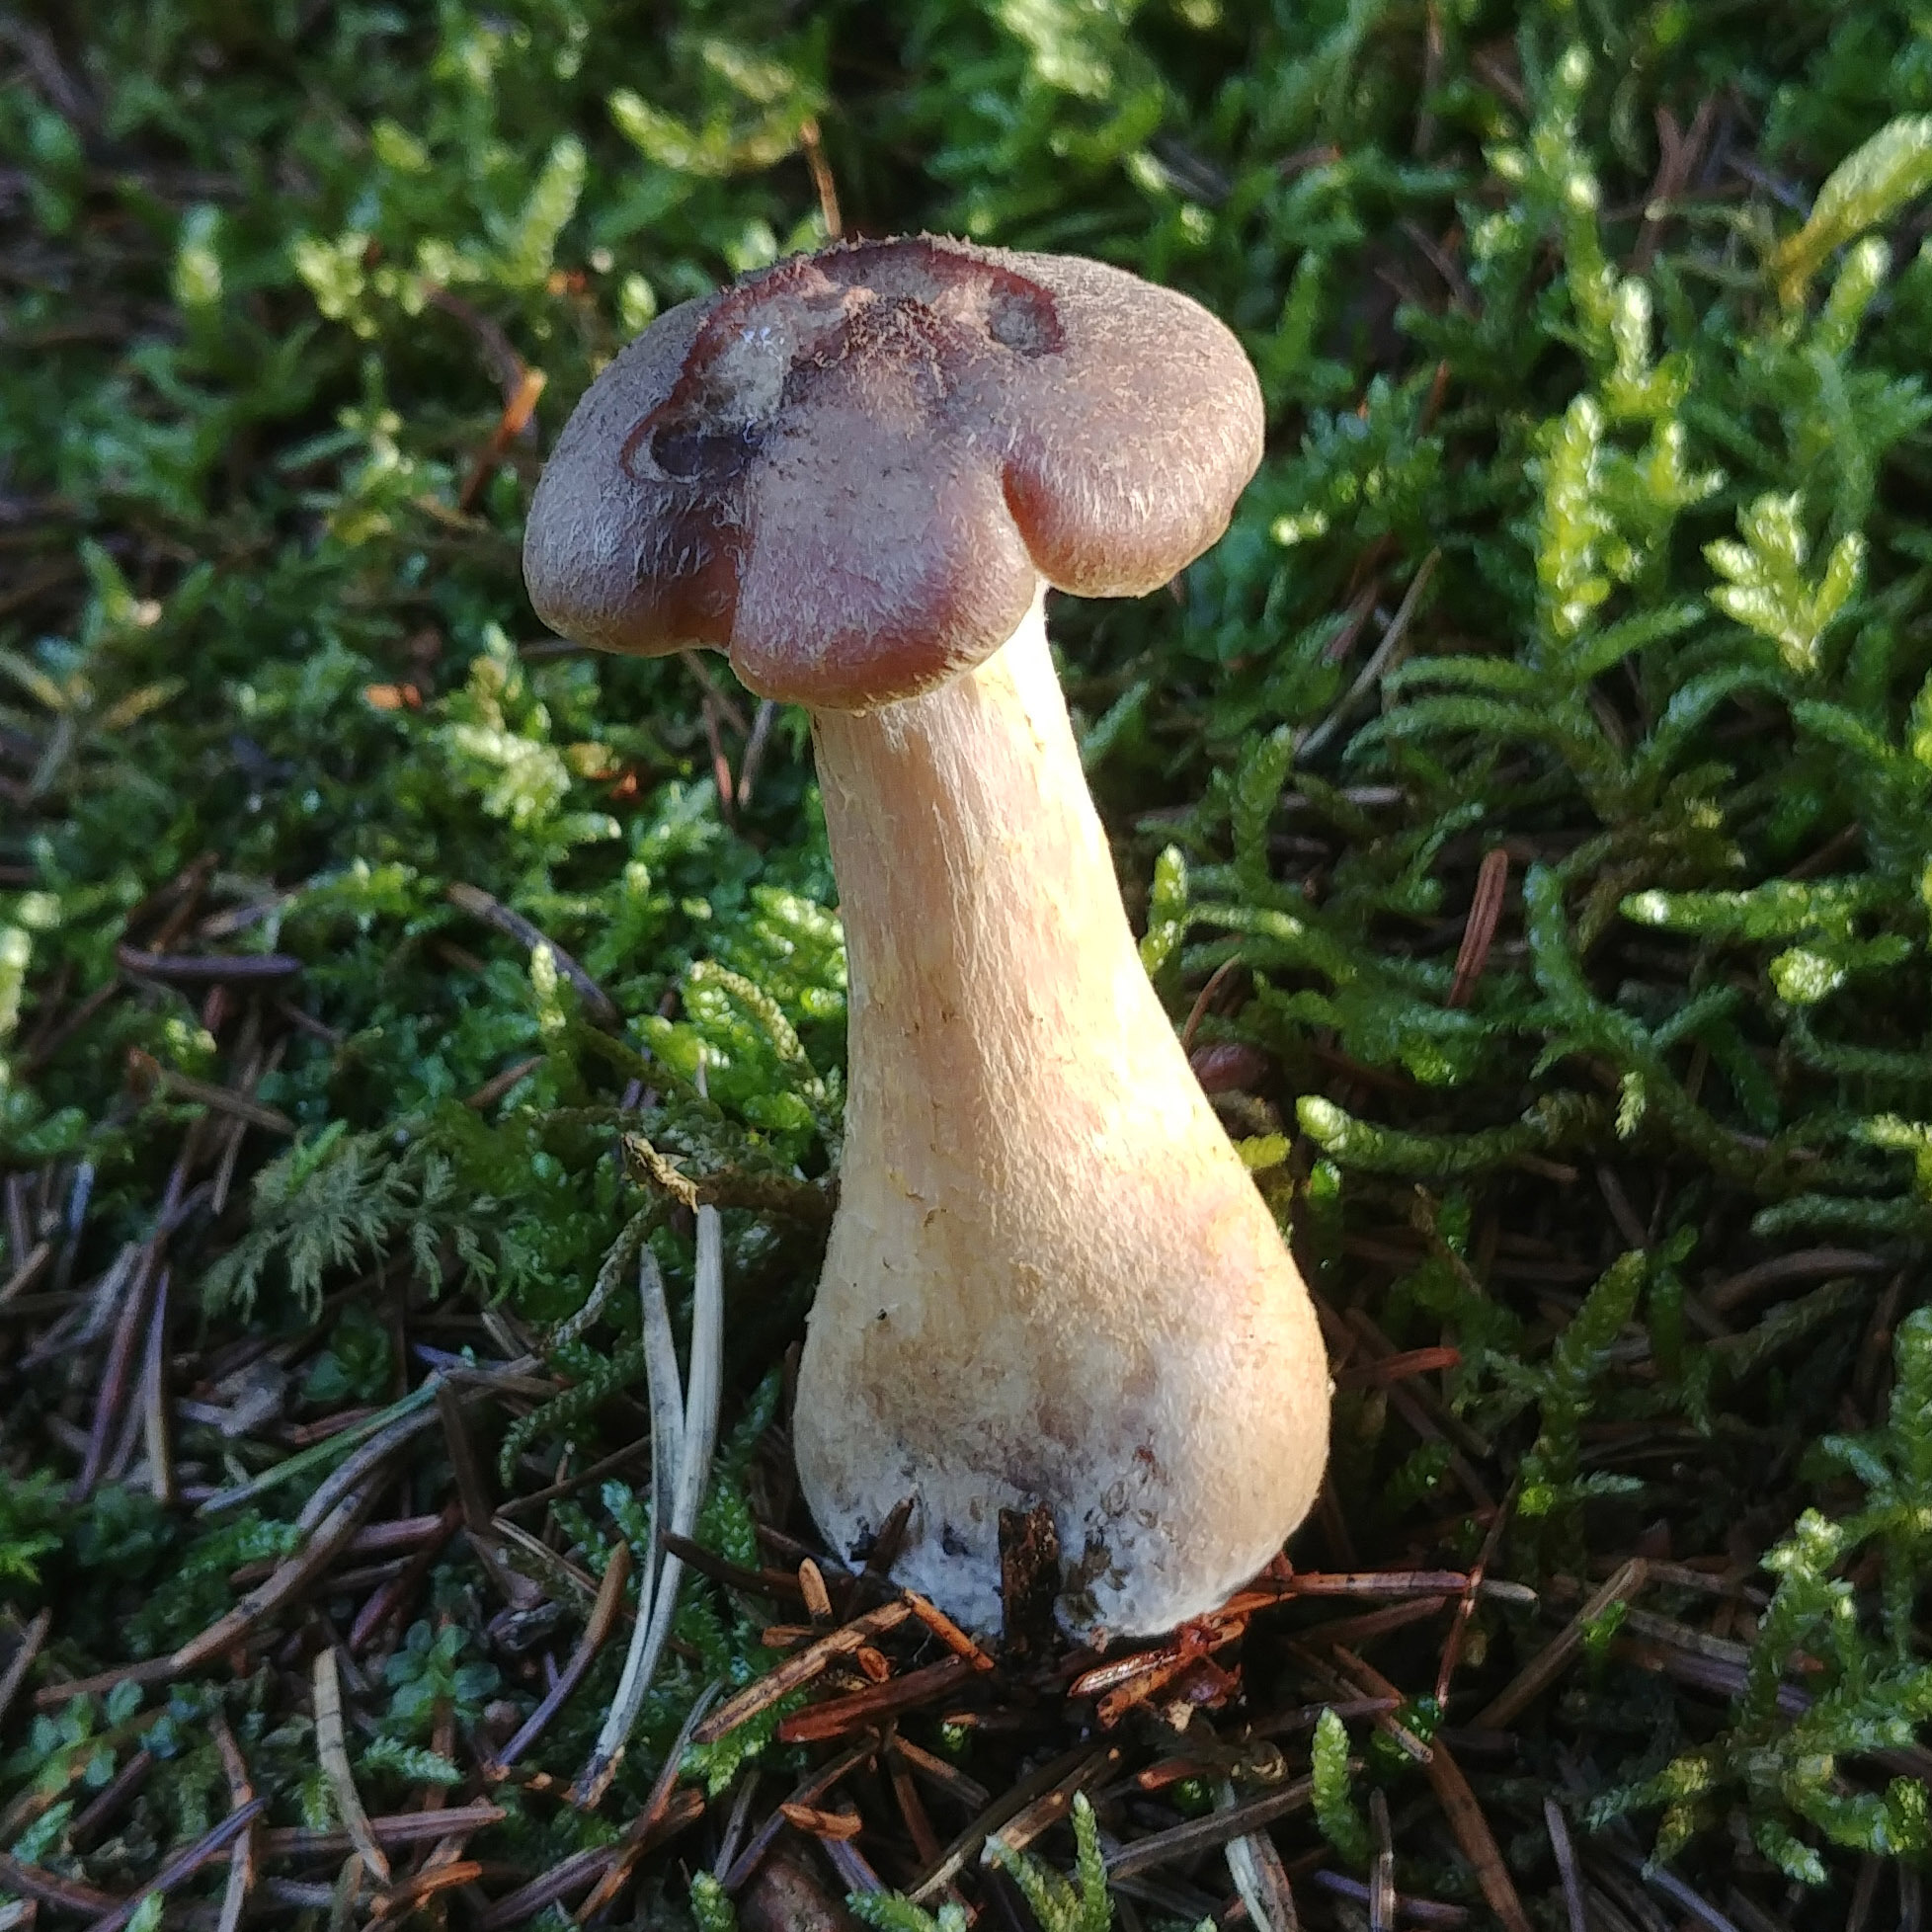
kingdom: Fungi
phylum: Basidiomycota
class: Agaricomycetes
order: Agaricales
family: Physalacriaceae
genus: Armillaria
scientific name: Armillaria gallica
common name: Bulbous honey fungus
